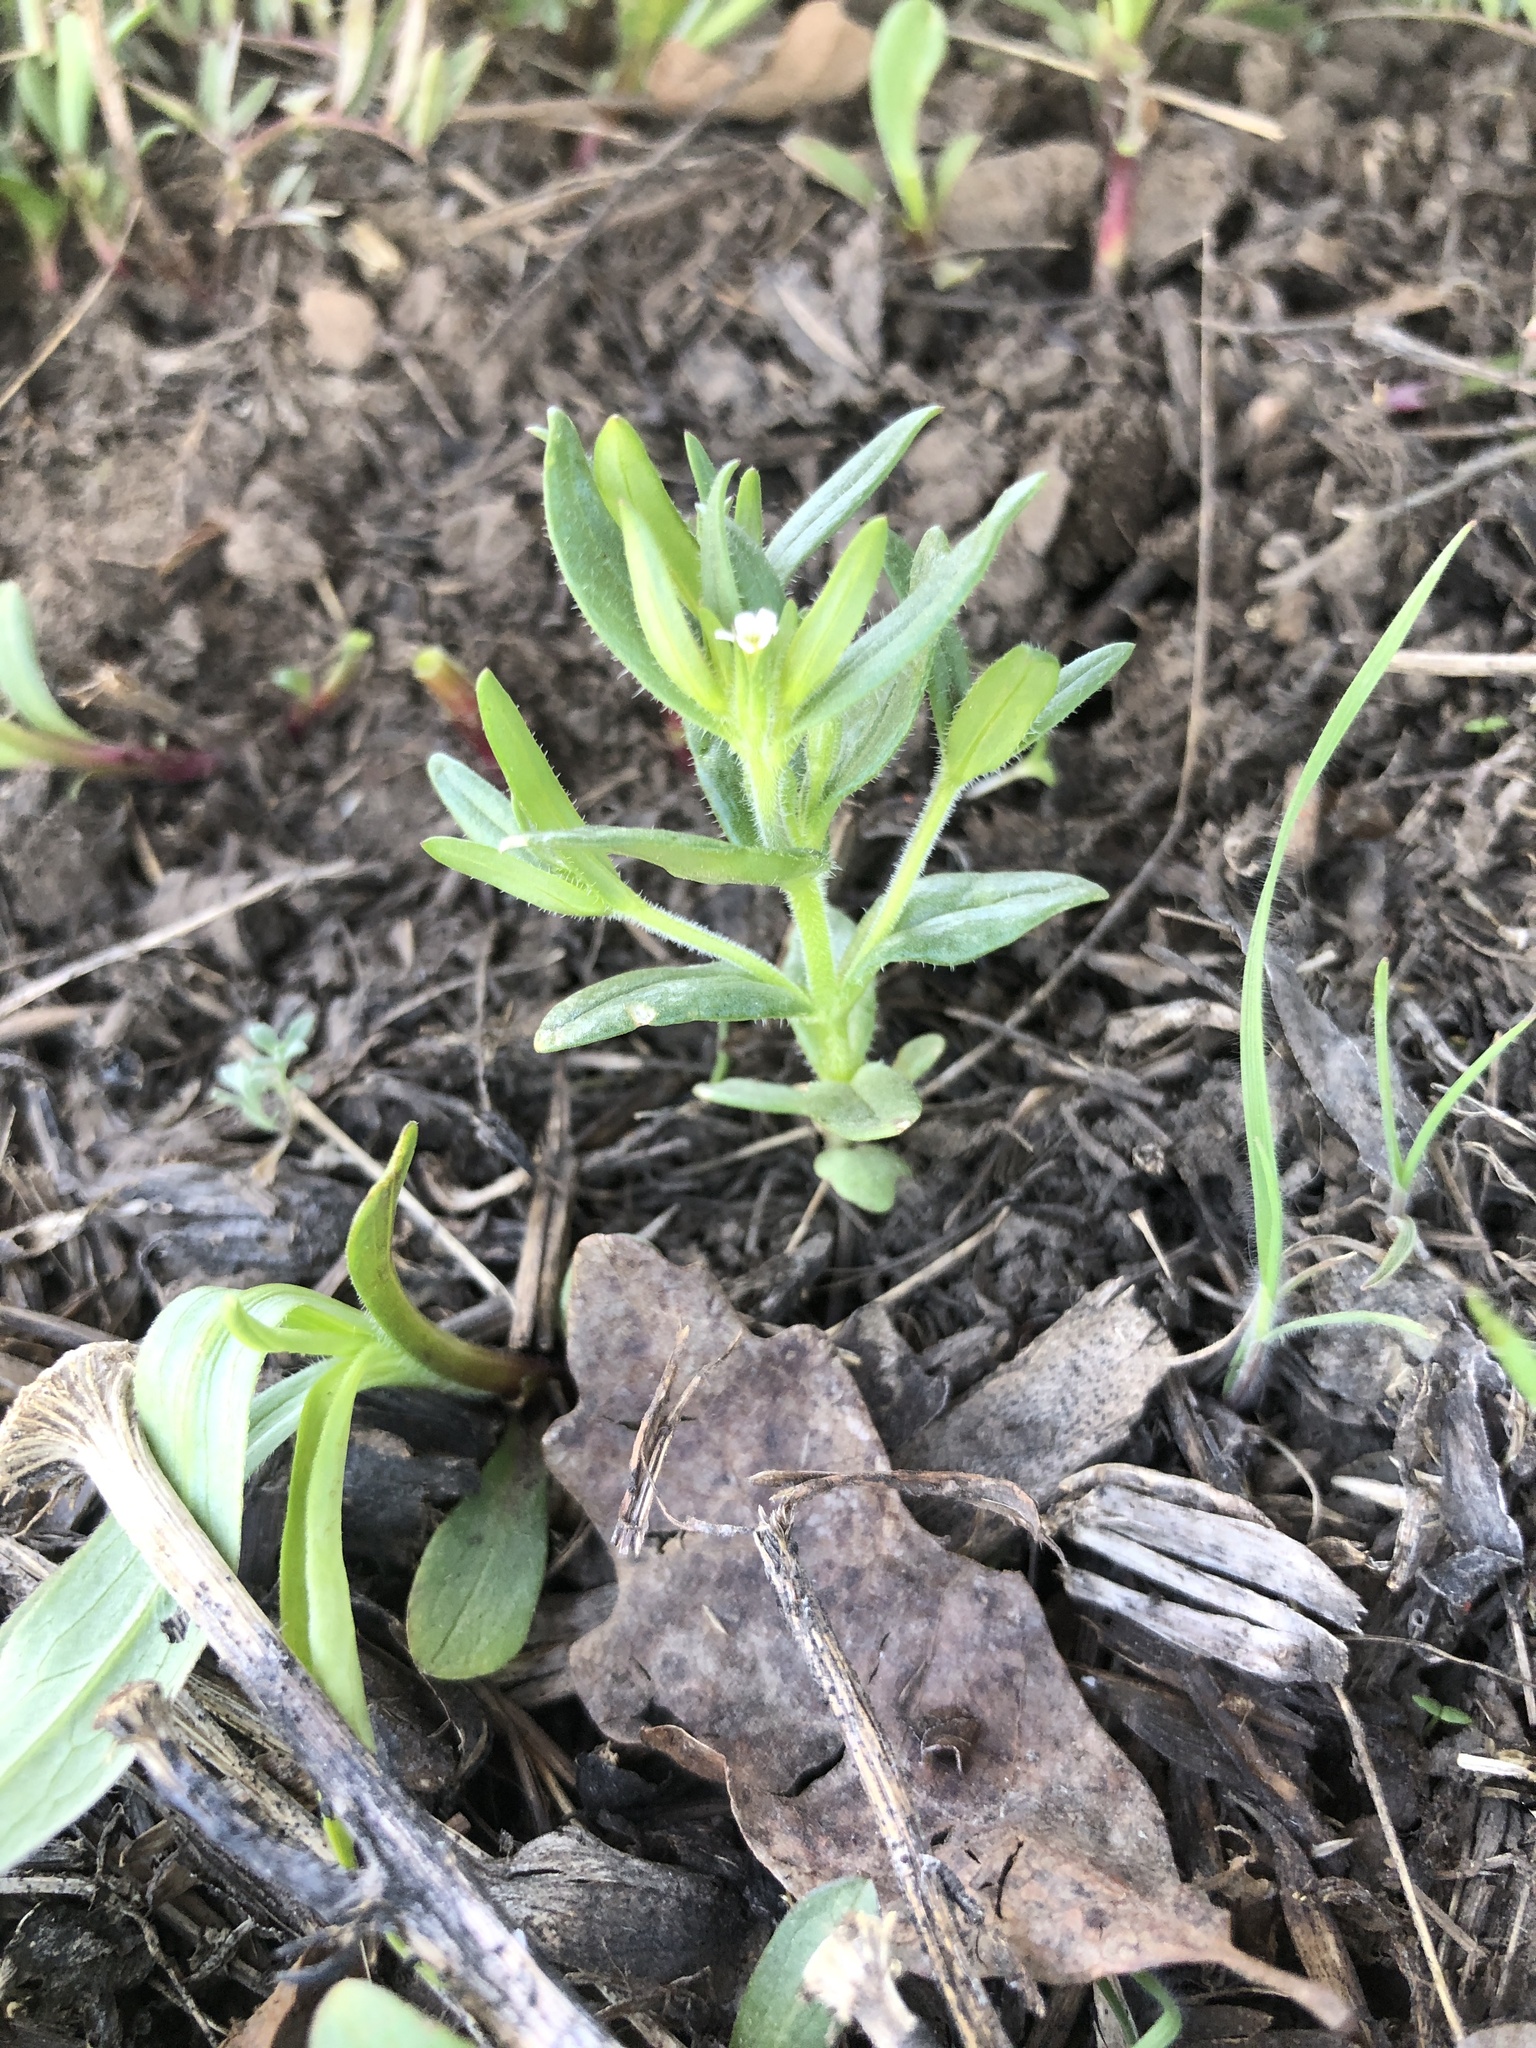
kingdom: Plantae
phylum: Tracheophyta
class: Magnoliopsida
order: Ericales
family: Polemoniaceae
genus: Phlox
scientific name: Phlox gracilis
